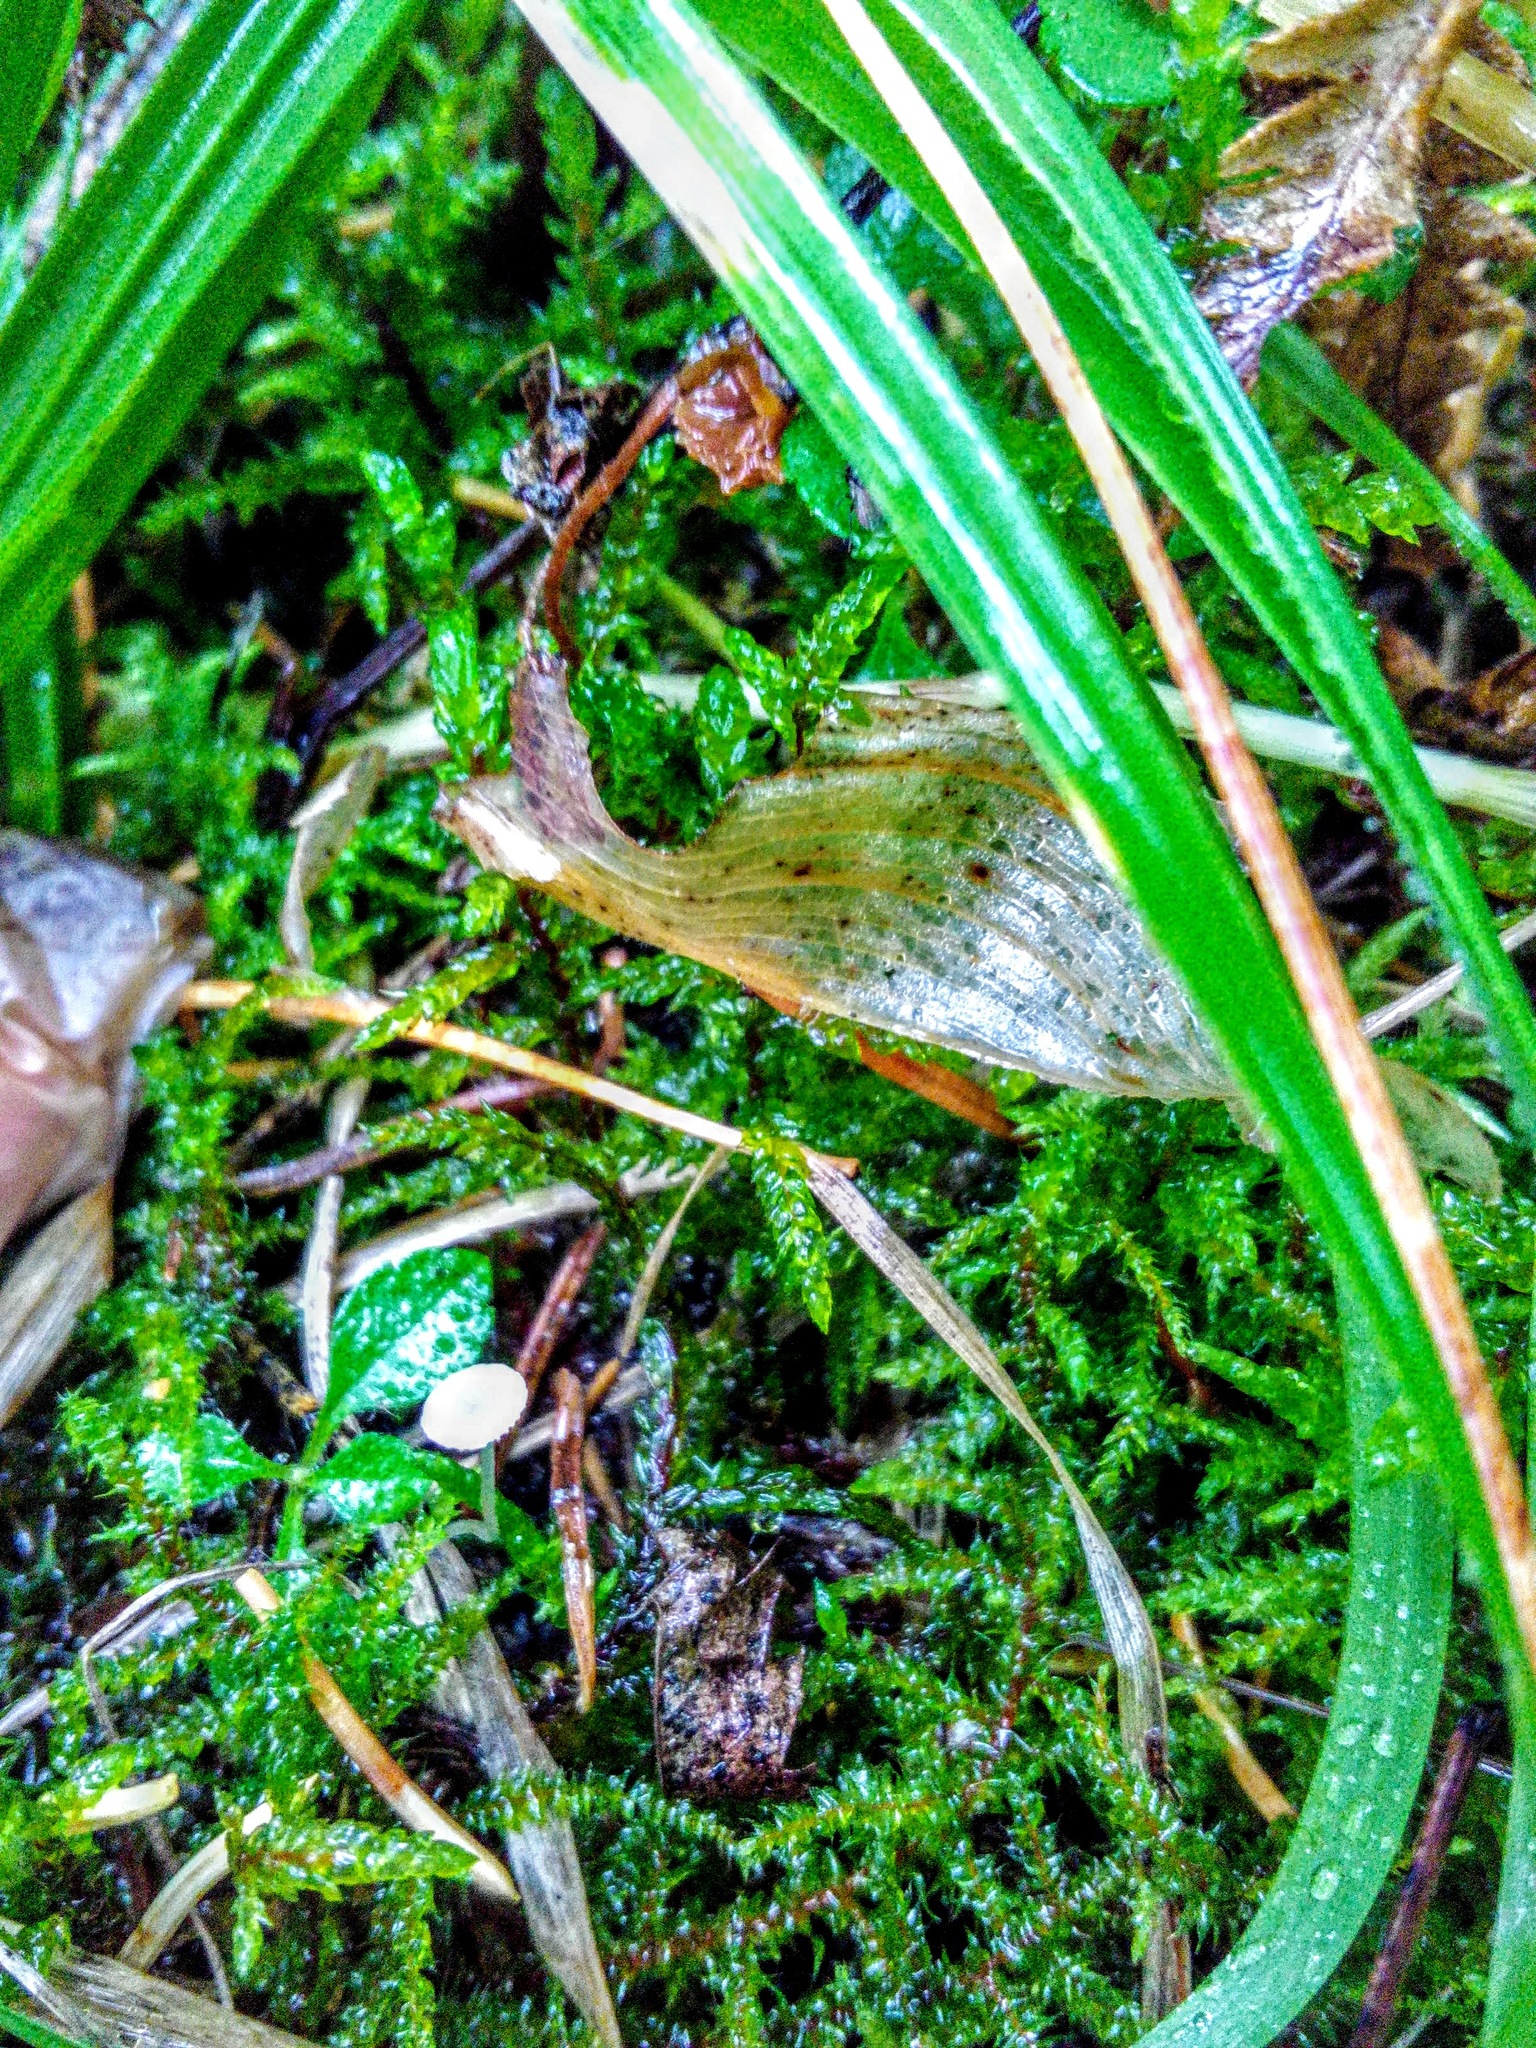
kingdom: Fungi
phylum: Basidiomycota
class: Agaricomycetes
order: Agaricales
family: Mycenaceae
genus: Roridomyces
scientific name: Roridomyces roridus
